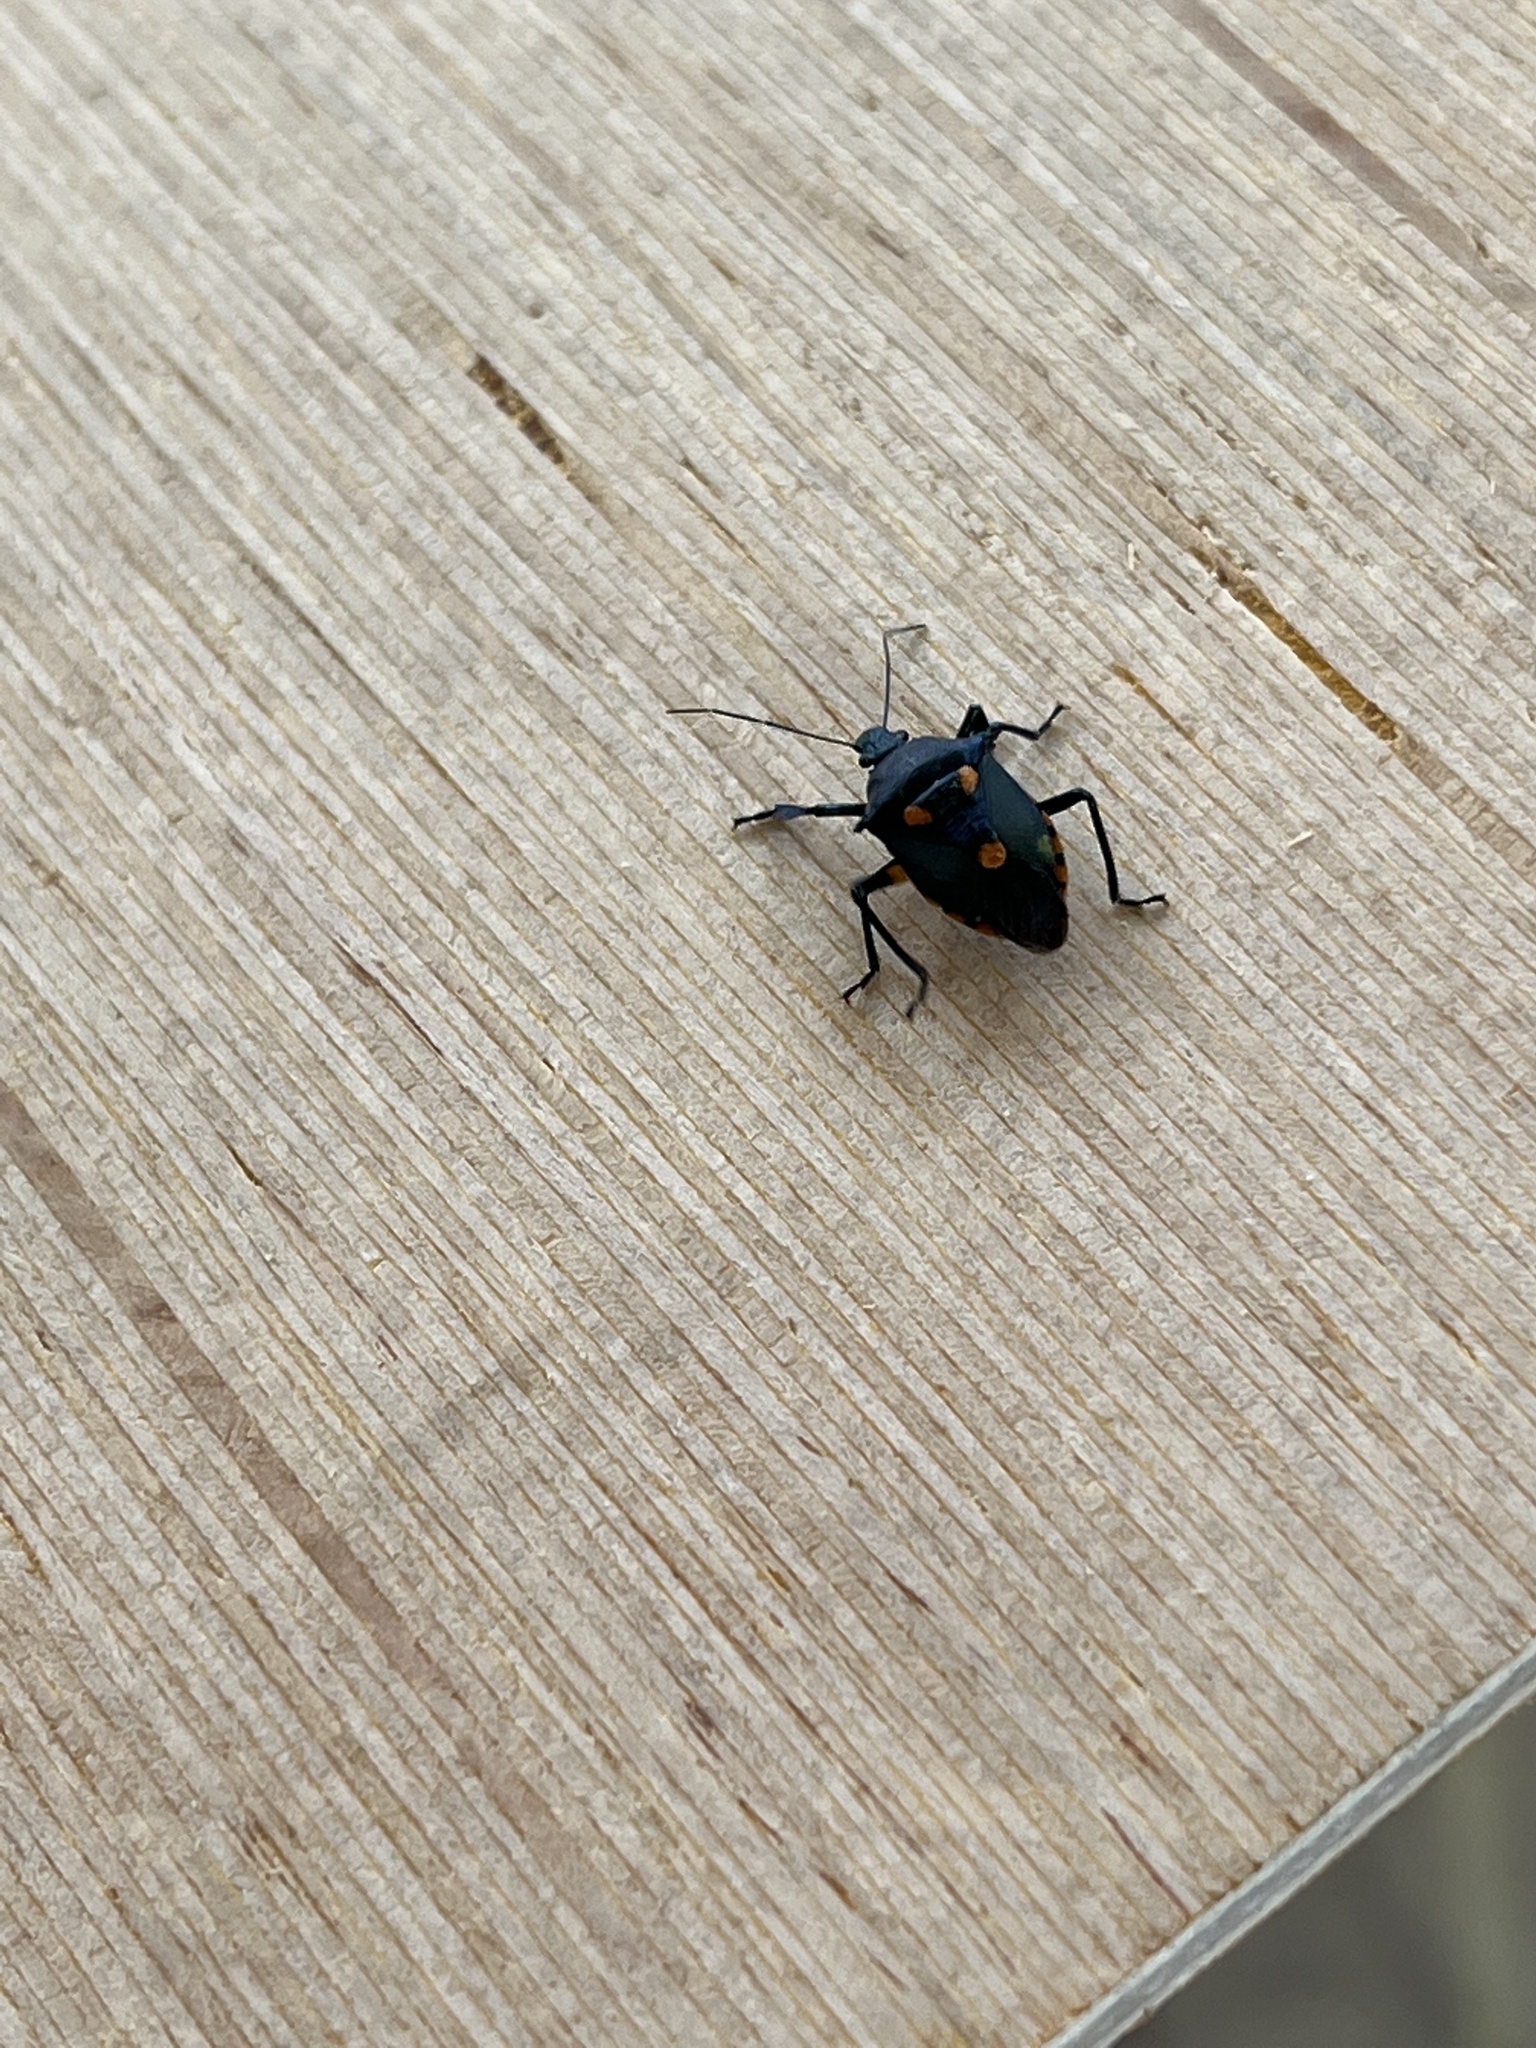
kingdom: Animalia
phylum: Arthropoda
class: Insecta
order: Hemiptera
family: Pentatomidae
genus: Euthyrhynchus
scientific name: Euthyrhynchus floridanus
